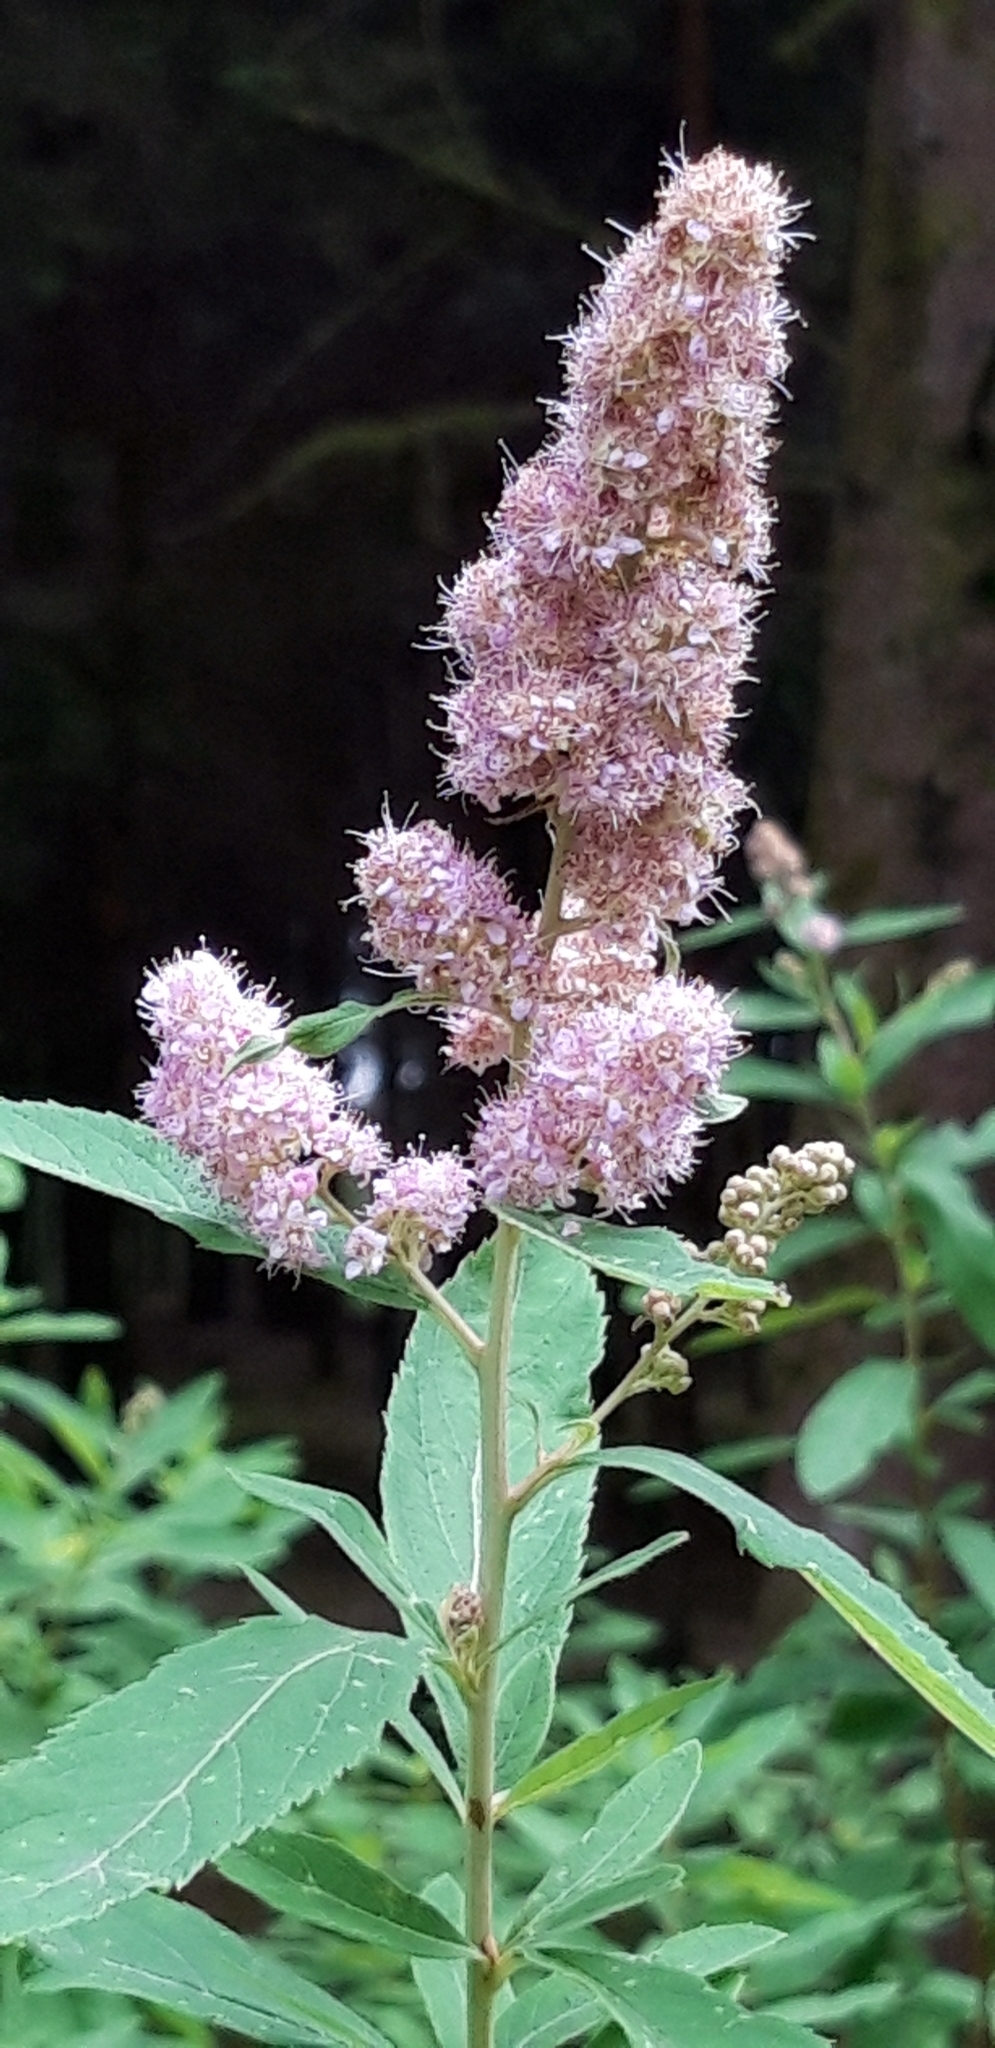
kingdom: Plantae
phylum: Tracheophyta
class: Magnoliopsida
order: Rosales
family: Rosaceae
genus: Spiraea
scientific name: Spiraea douglasii
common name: Steeplebush
